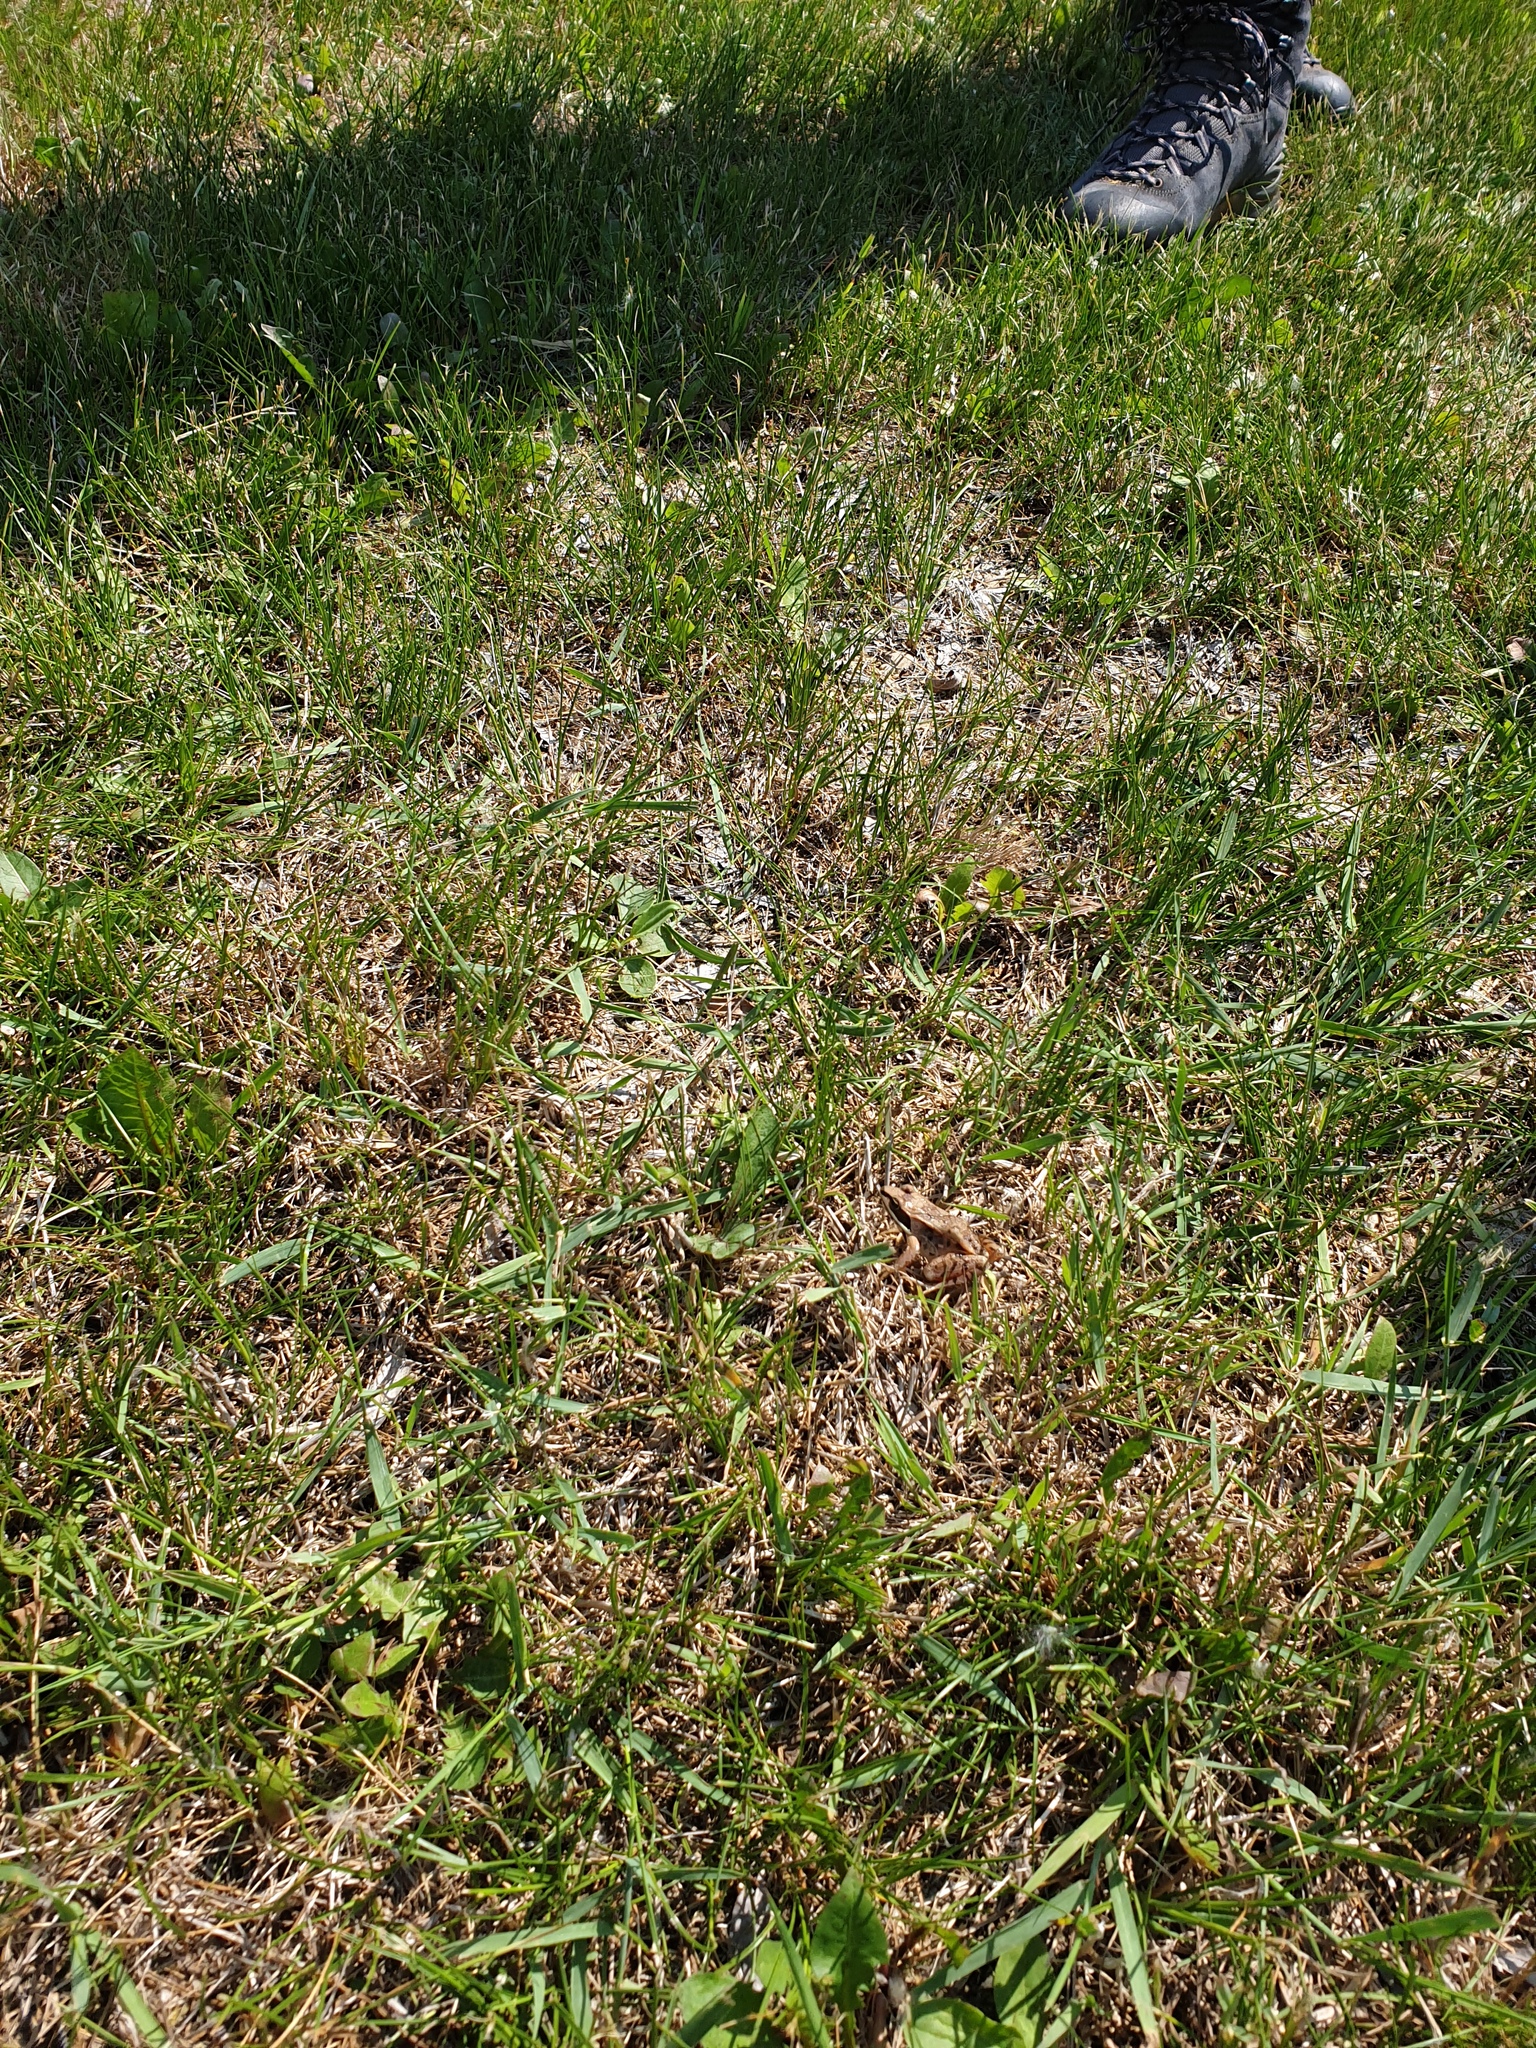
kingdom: Animalia
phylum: Chordata
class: Amphibia
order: Anura
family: Ranidae
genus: Lithobates
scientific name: Lithobates sylvaticus
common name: Wood frog
